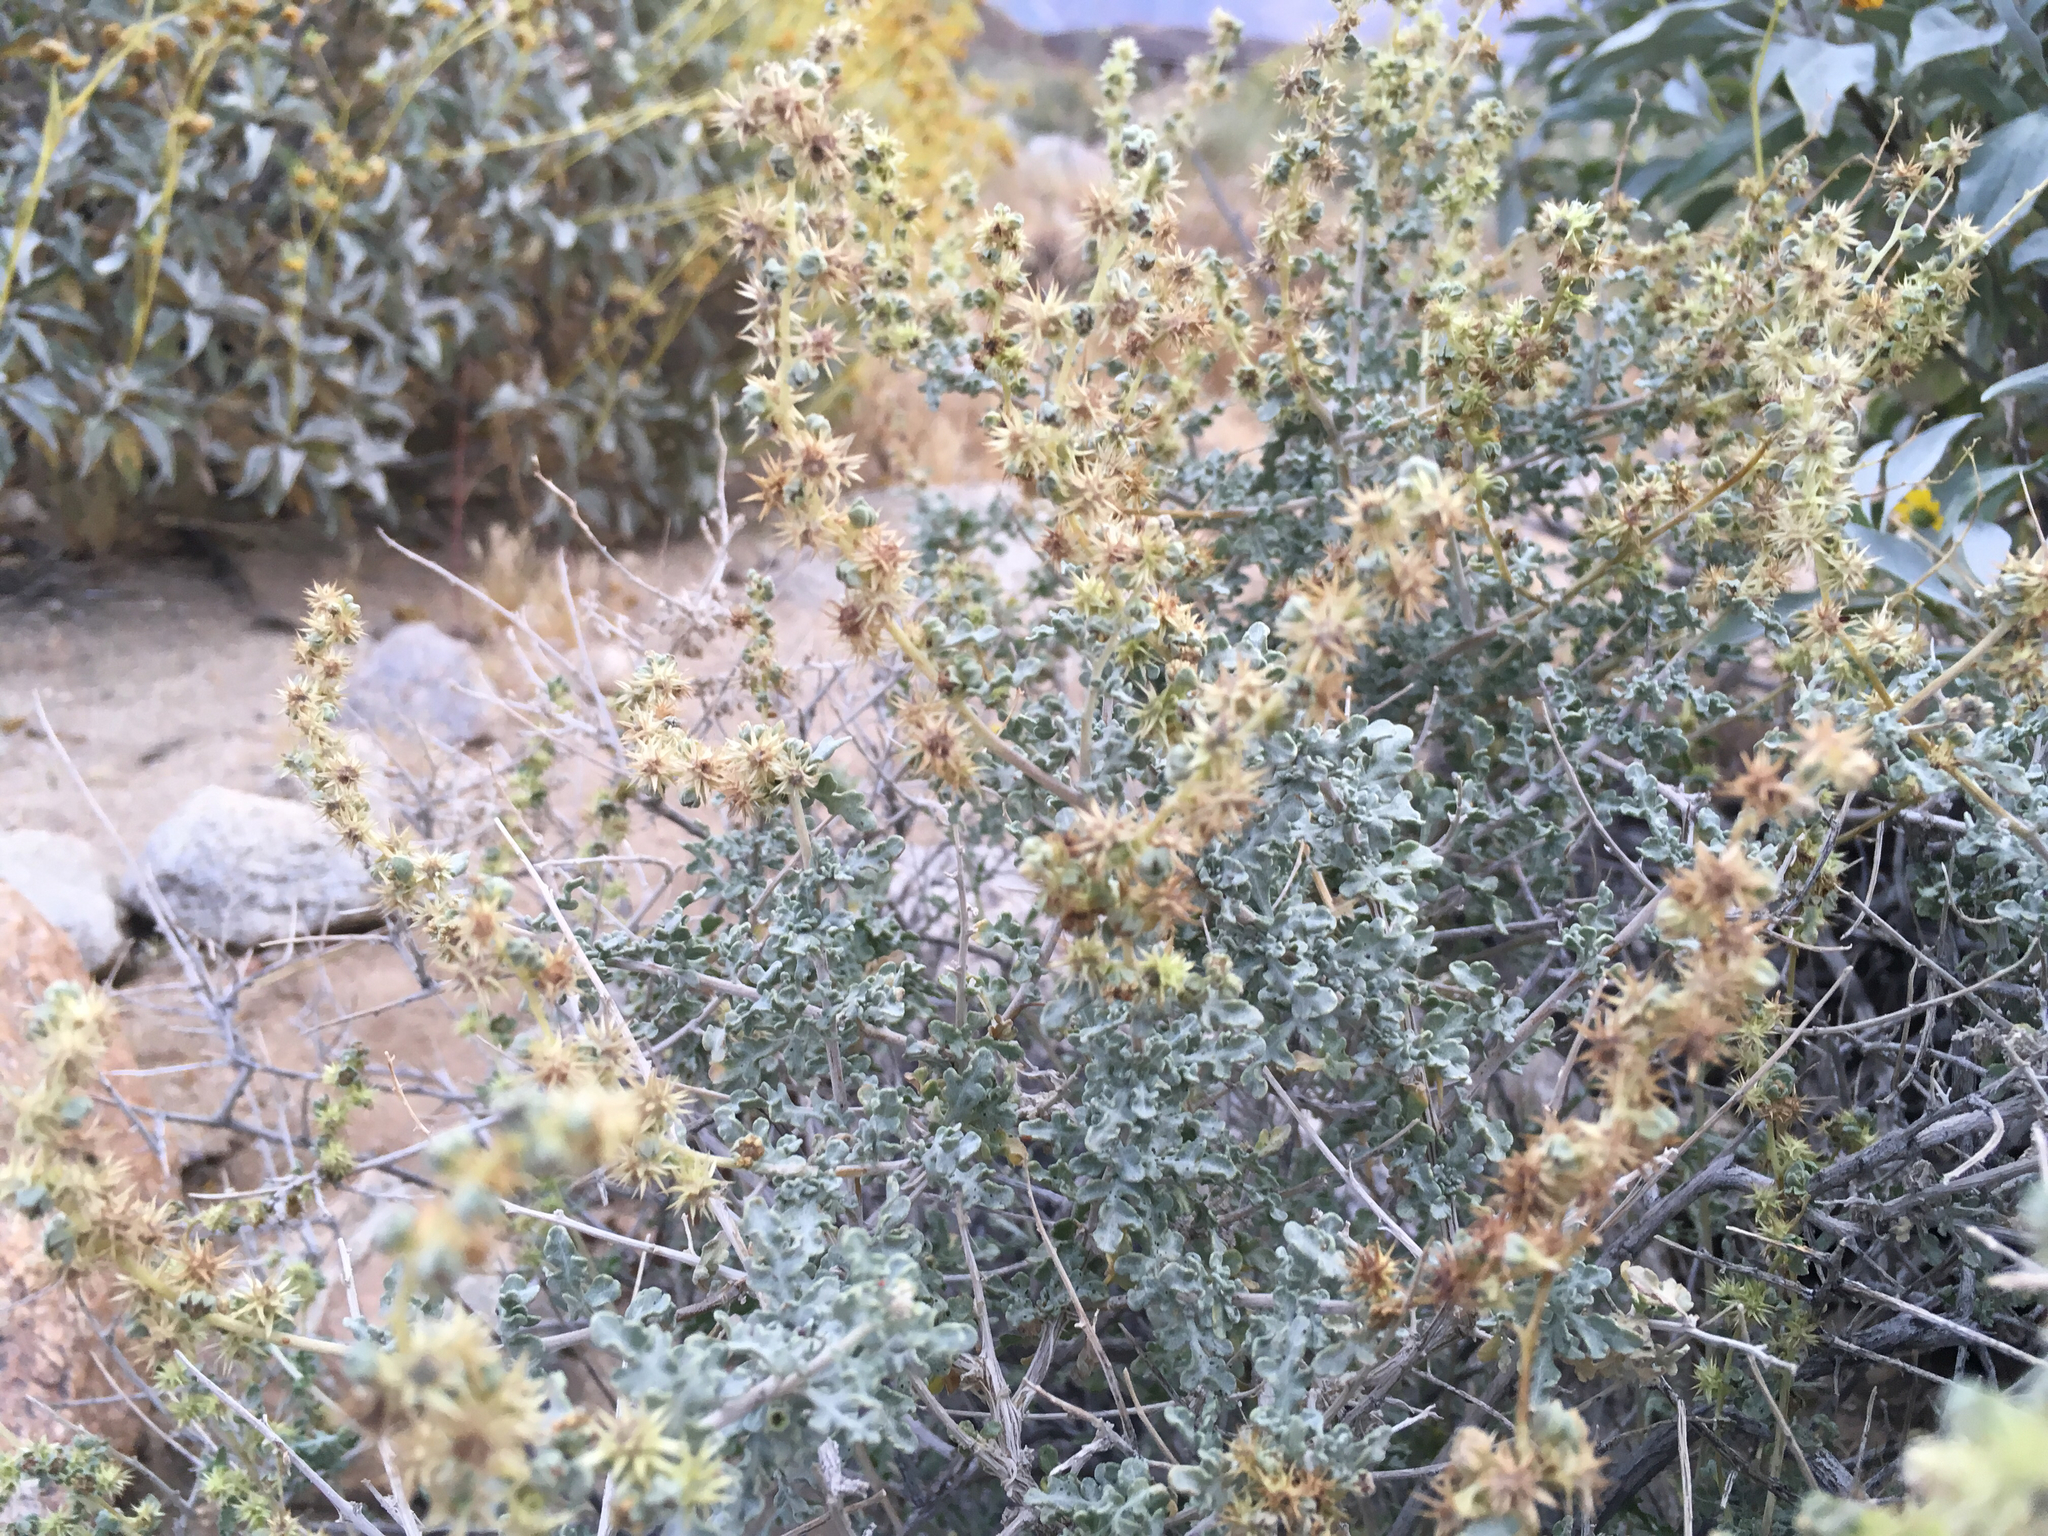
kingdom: Plantae
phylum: Tracheophyta
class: Magnoliopsida
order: Asterales
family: Asteraceae
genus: Ambrosia
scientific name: Ambrosia dumosa
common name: Bur-sage
